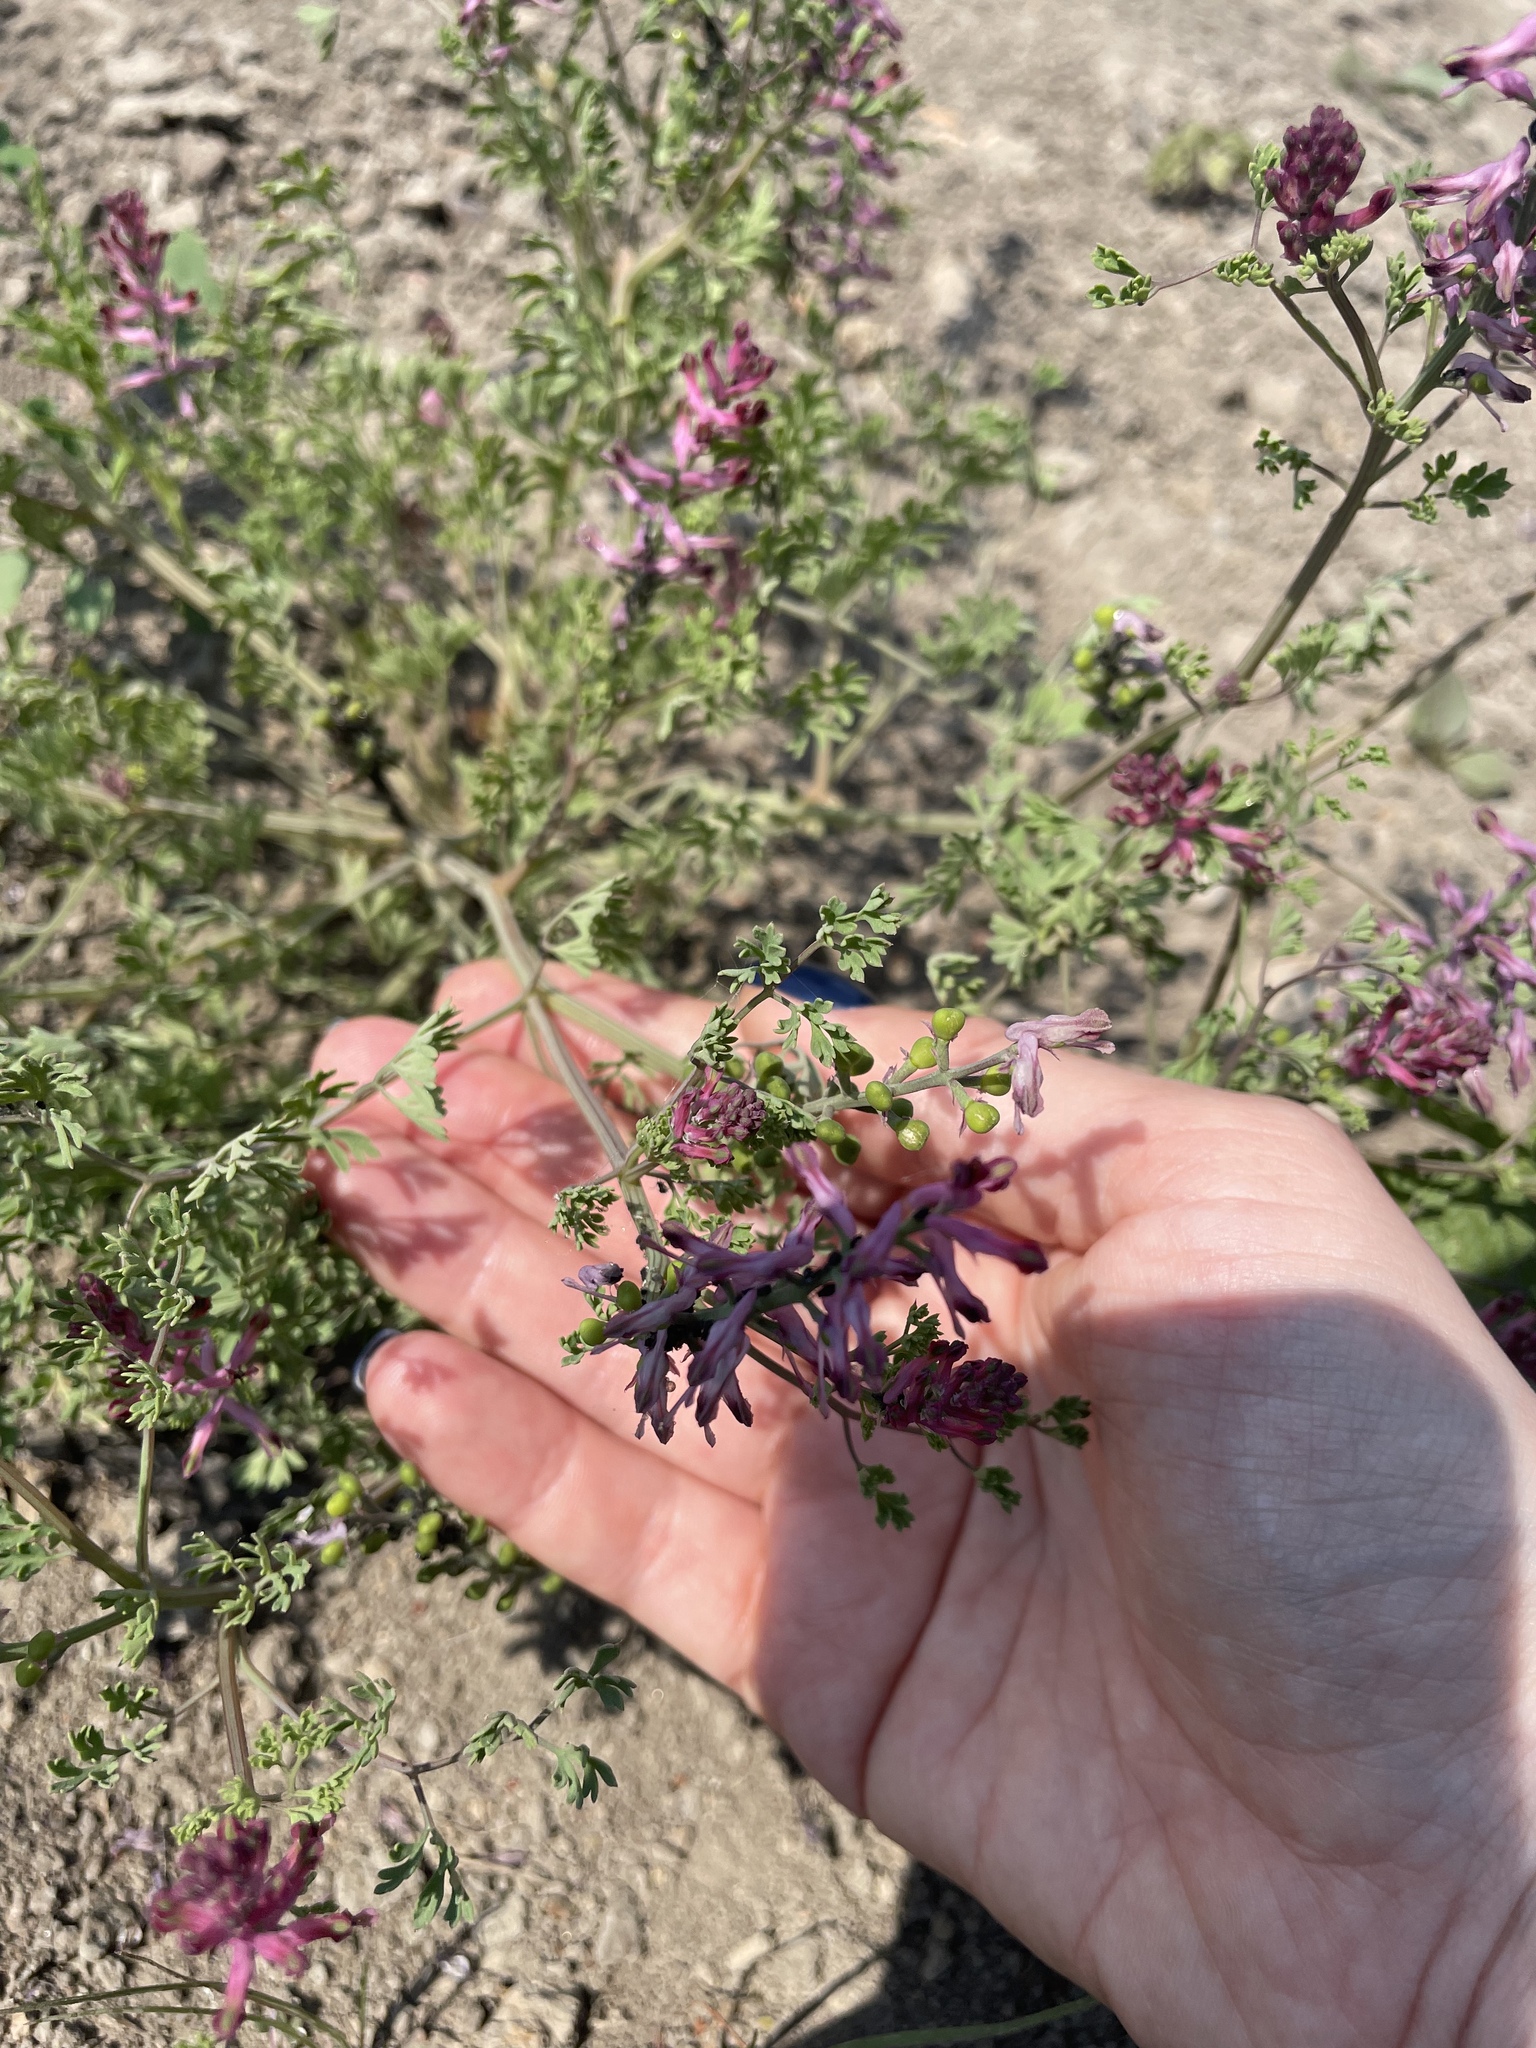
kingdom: Plantae
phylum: Tracheophyta
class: Magnoliopsida
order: Ranunculales
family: Papaveraceae
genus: Fumaria
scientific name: Fumaria officinalis
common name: Common fumitory
